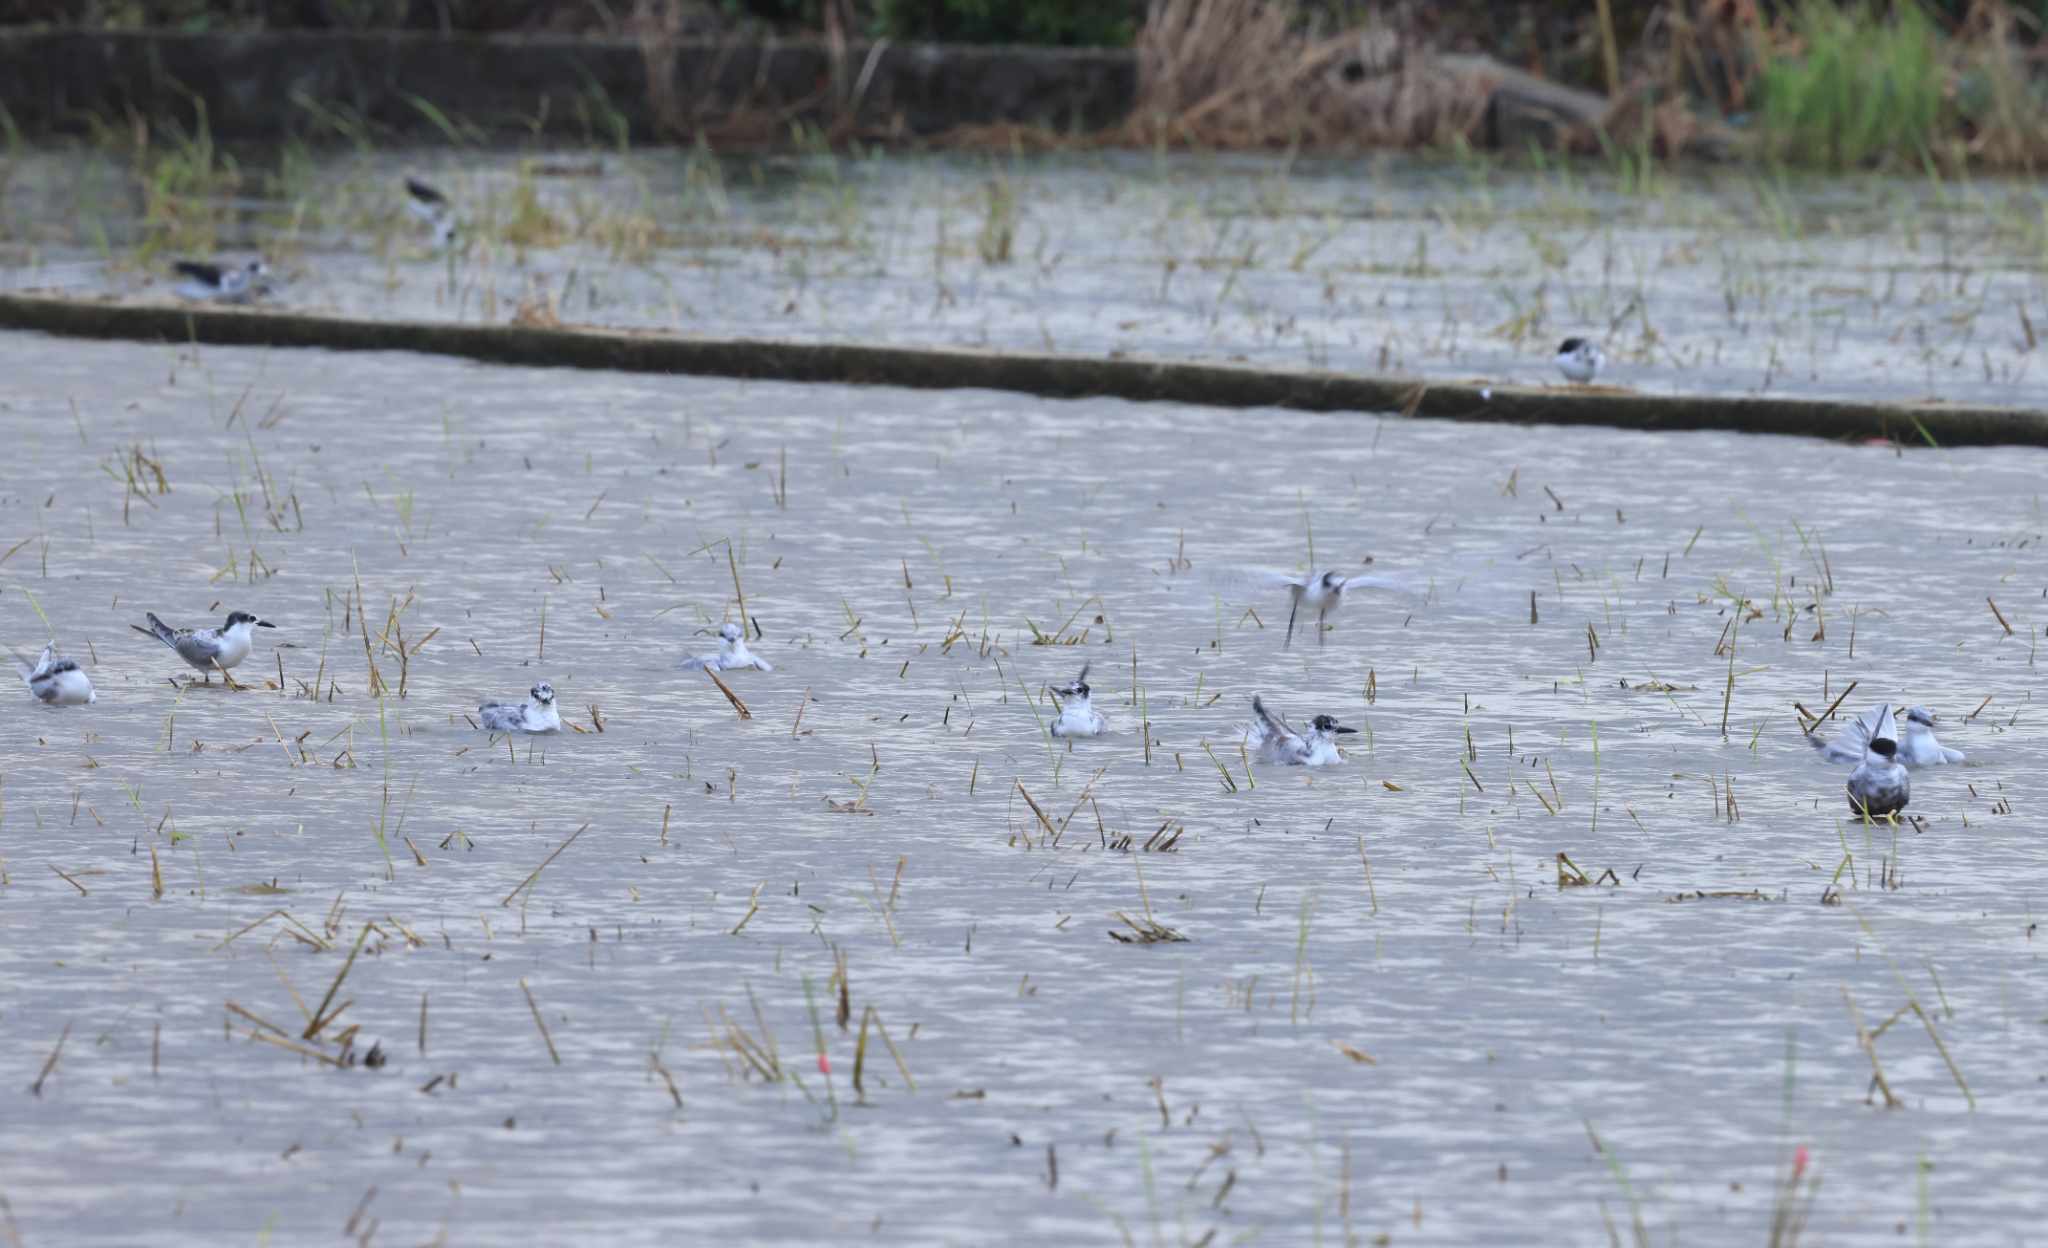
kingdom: Animalia
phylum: Chordata
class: Aves
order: Charadriiformes
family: Laridae
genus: Chlidonias
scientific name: Chlidonias hybrida
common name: Whiskered tern
